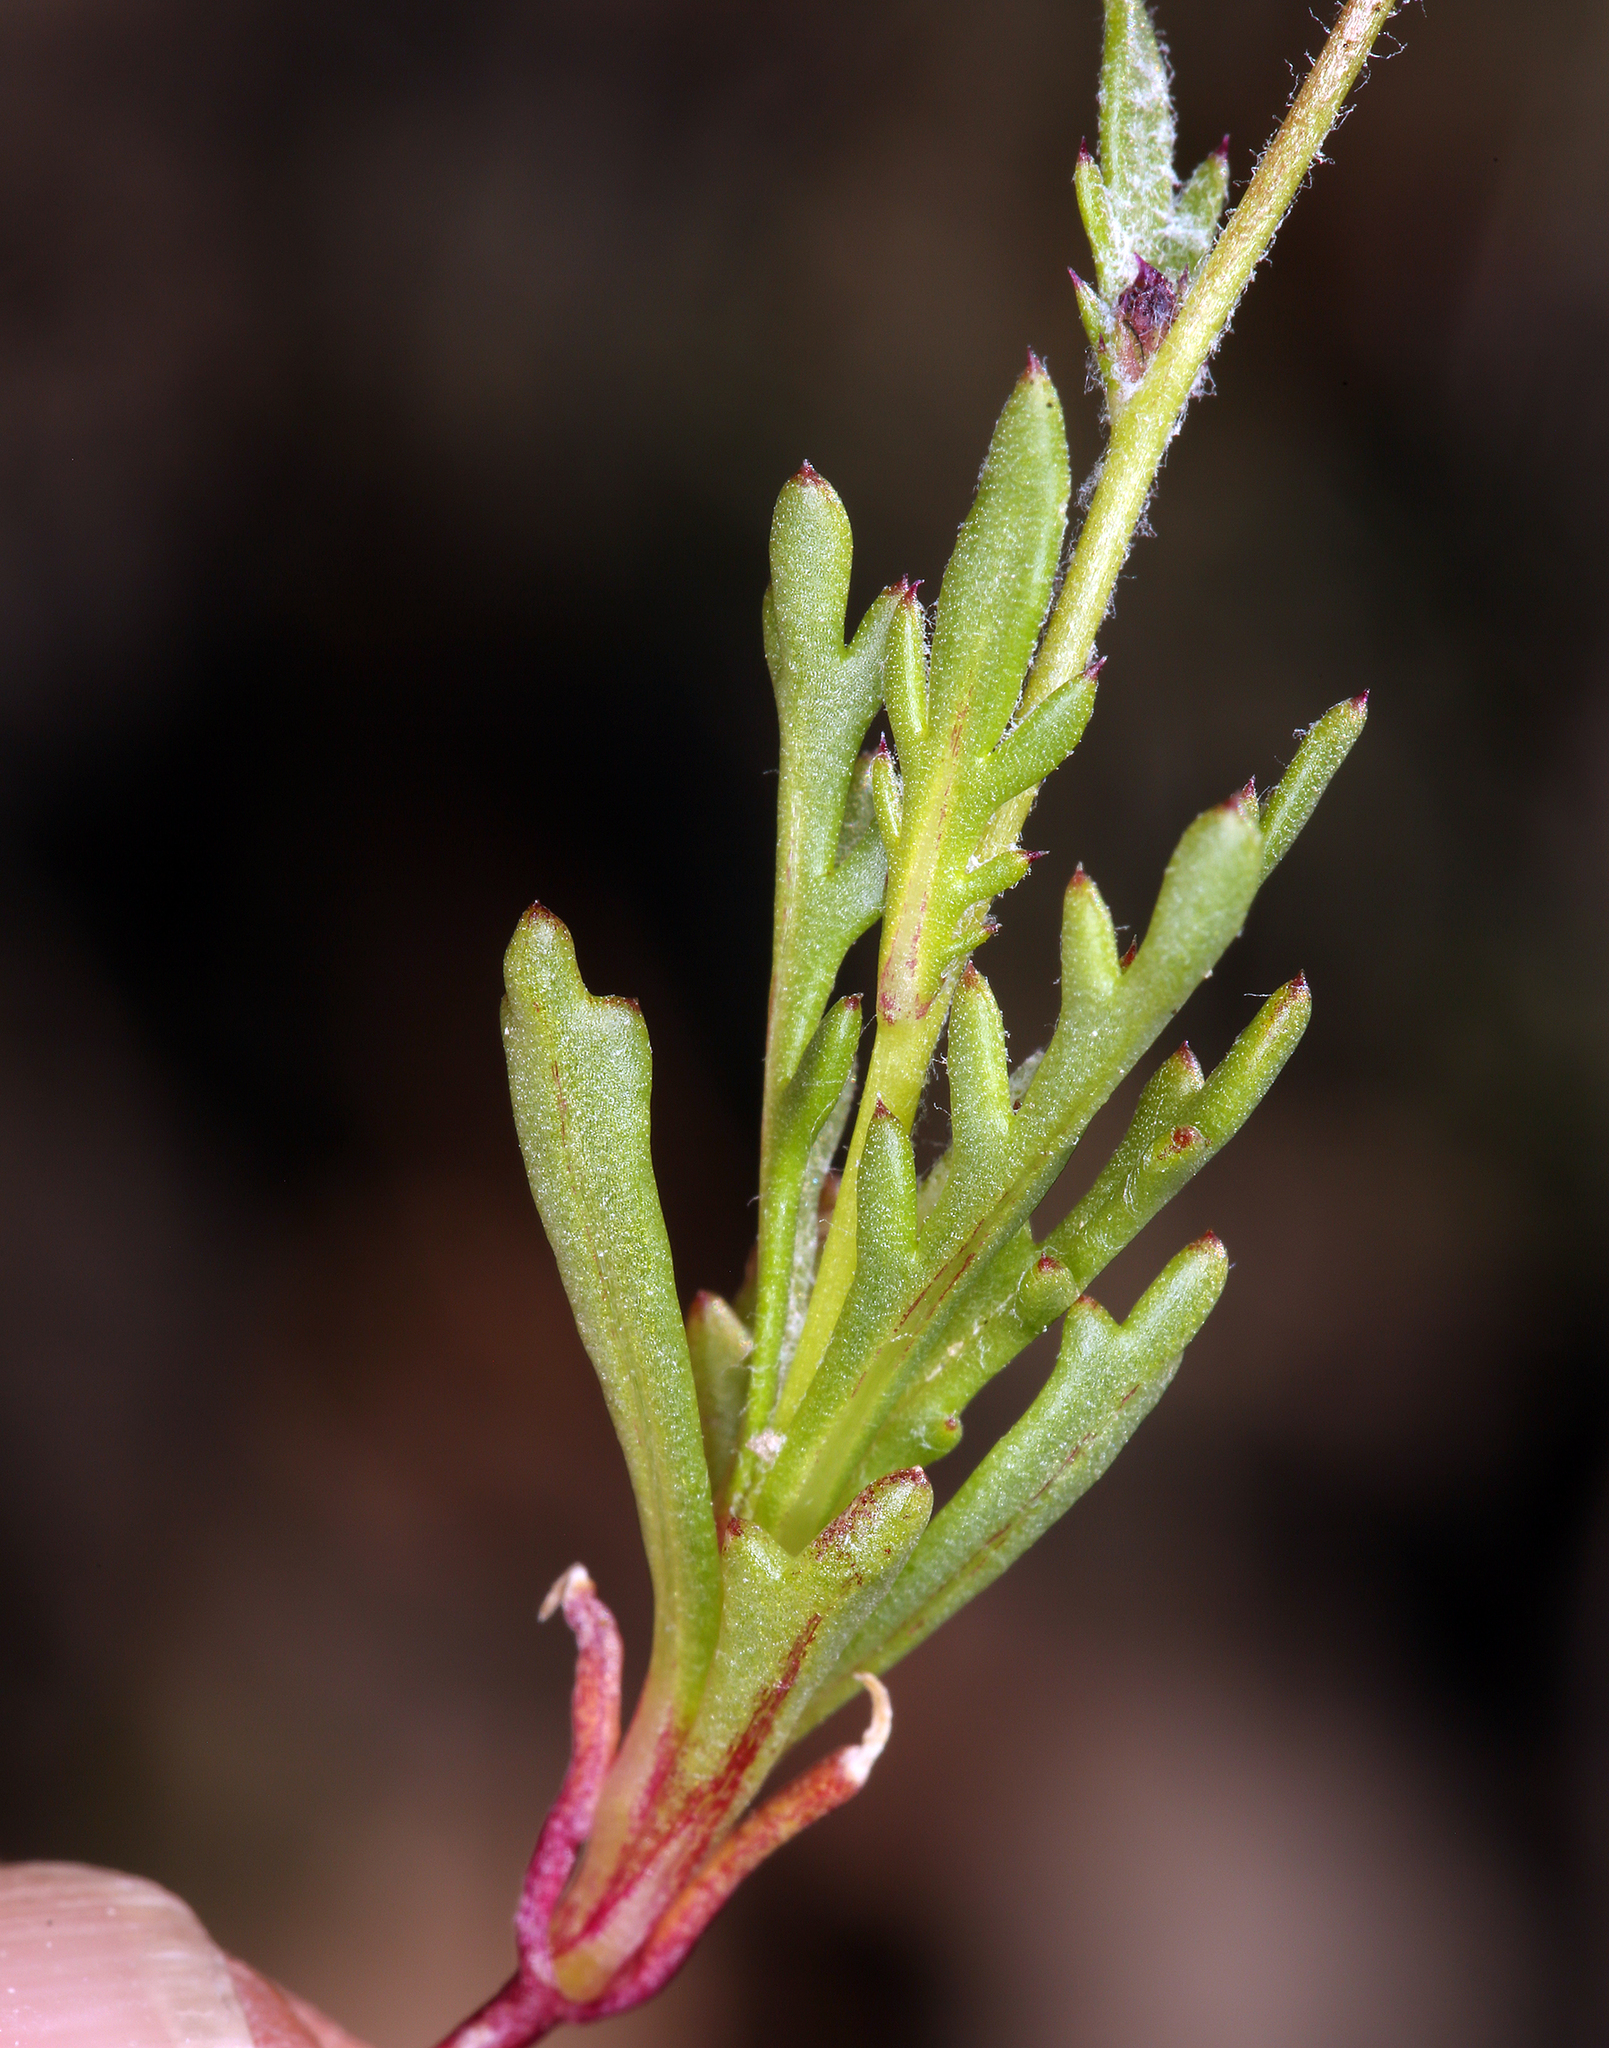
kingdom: Plantae
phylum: Tracheophyta
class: Magnoliopsida
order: Ericales
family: Polemoniaceae
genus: Gilia
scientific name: Gilia transmontana
